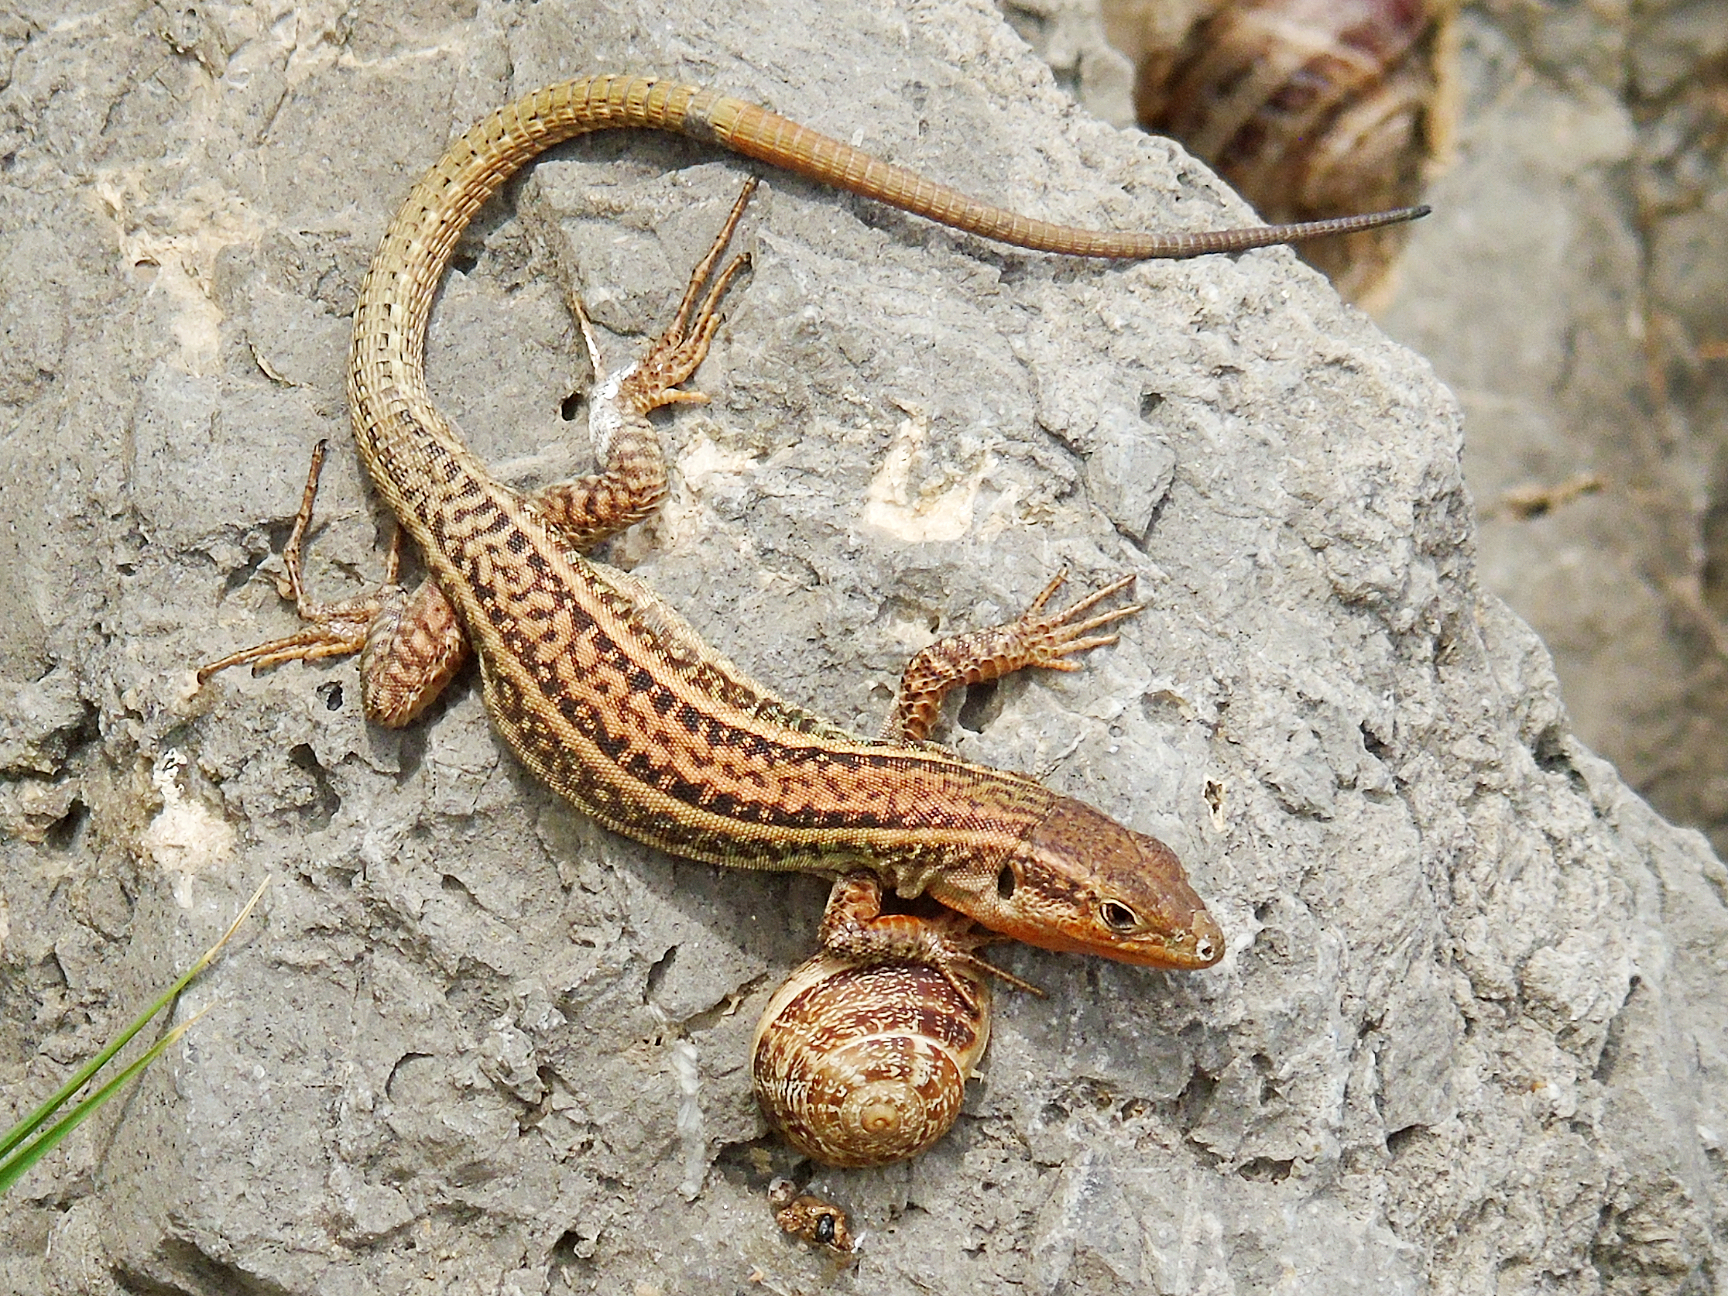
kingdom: Animalia
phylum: Chordata
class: Squamata
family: Lacertidae
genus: Podarcis
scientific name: Podarcis peloponnesiacus
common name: Peloponnese wall lizard
